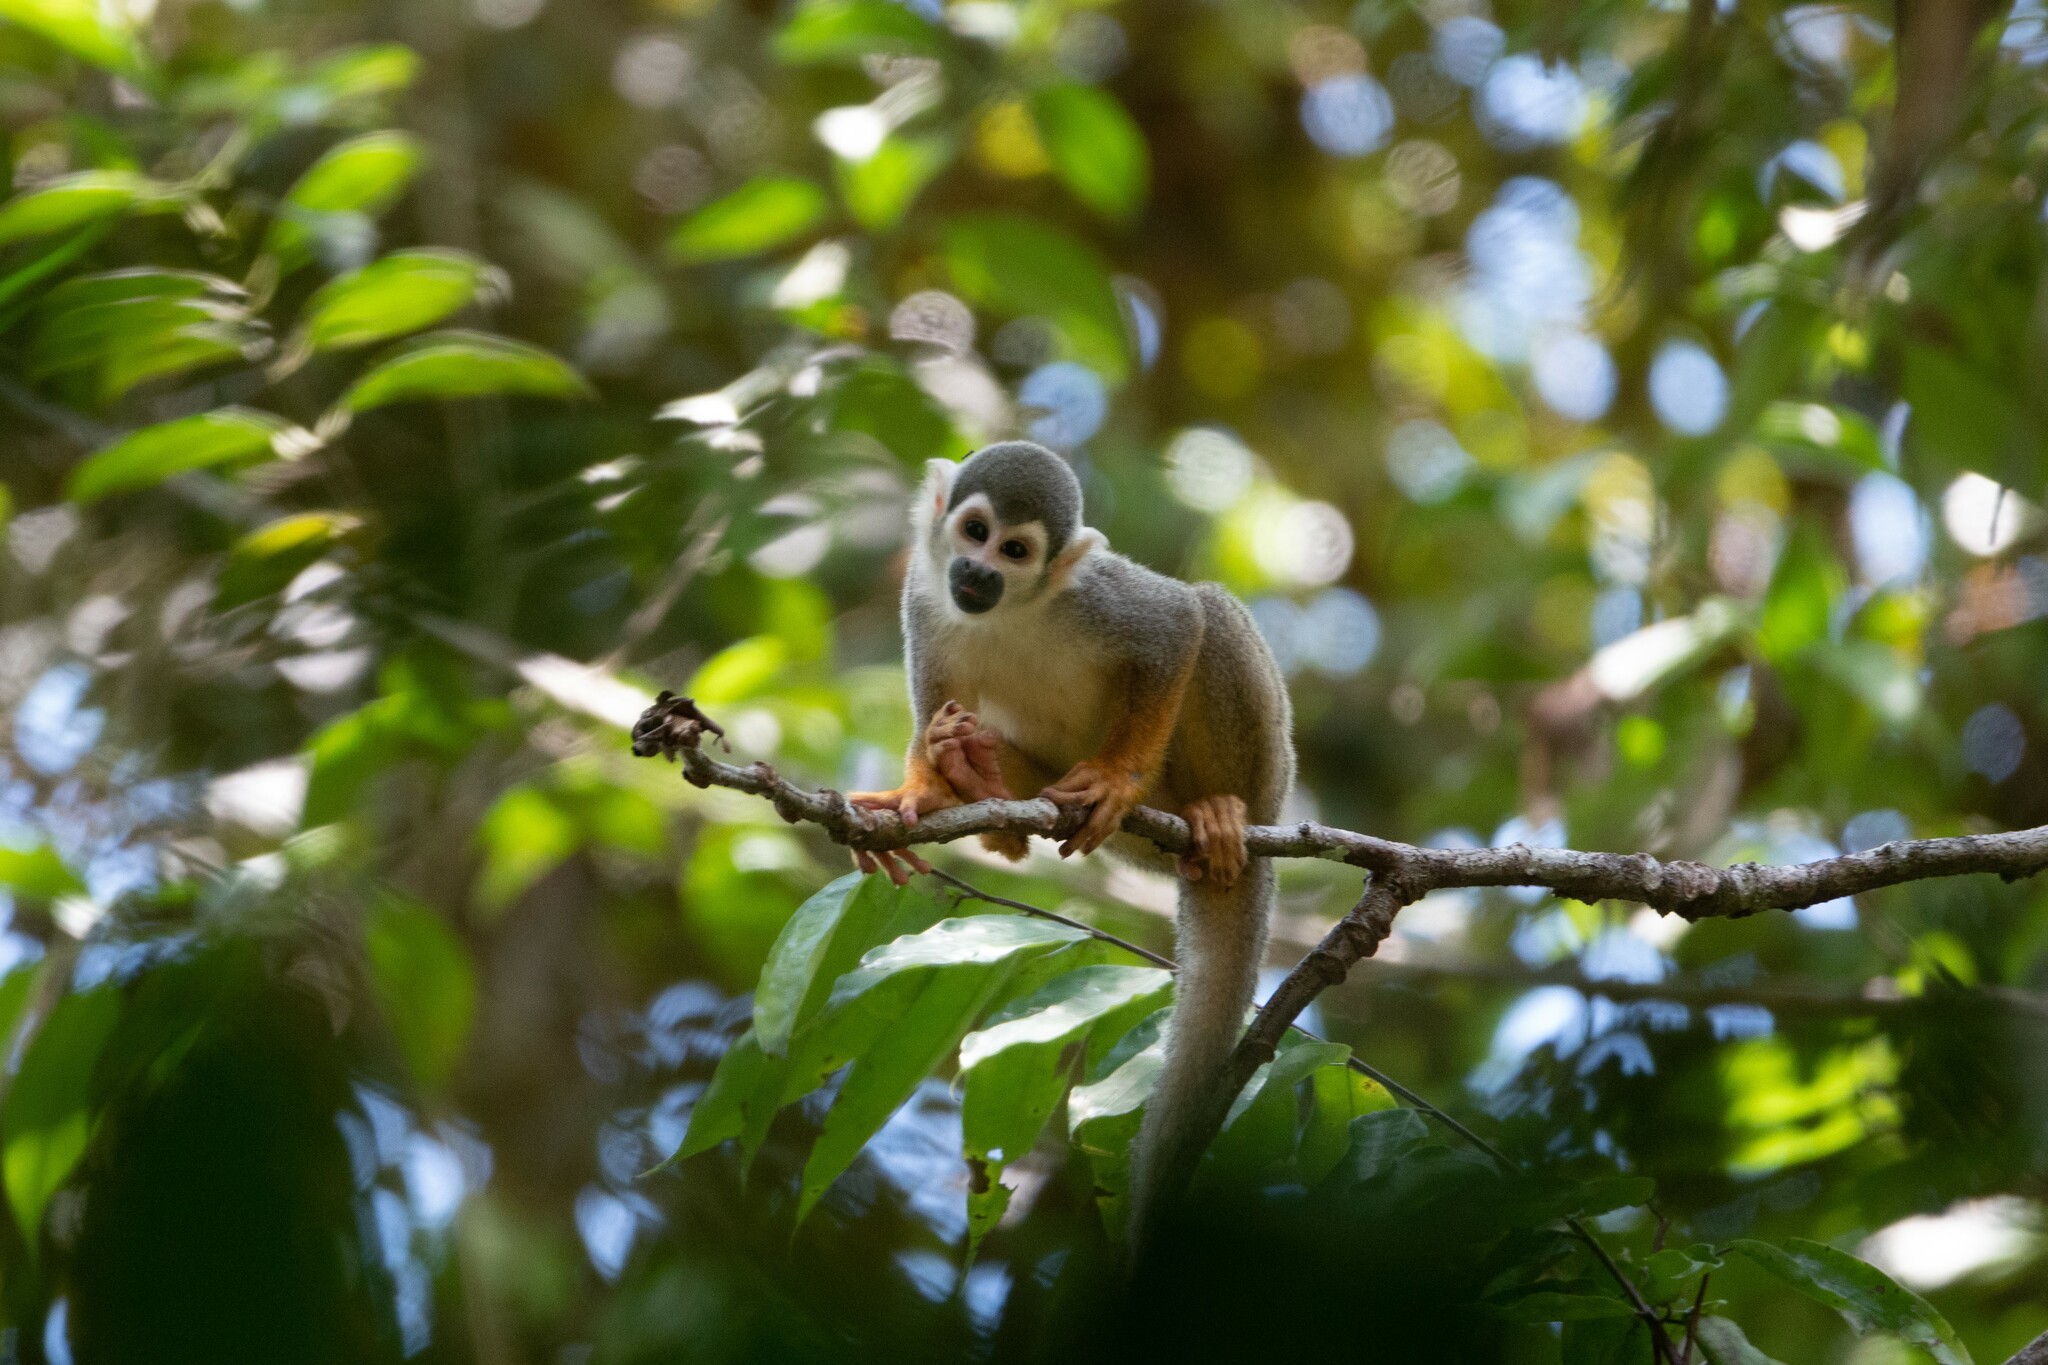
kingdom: Animalia
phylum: Chordata
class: Mammalia
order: Primates
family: Cebidae
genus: Saimiri
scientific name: Saimiri cassiquiarensis
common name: Humboldt’s squirrel monkey
